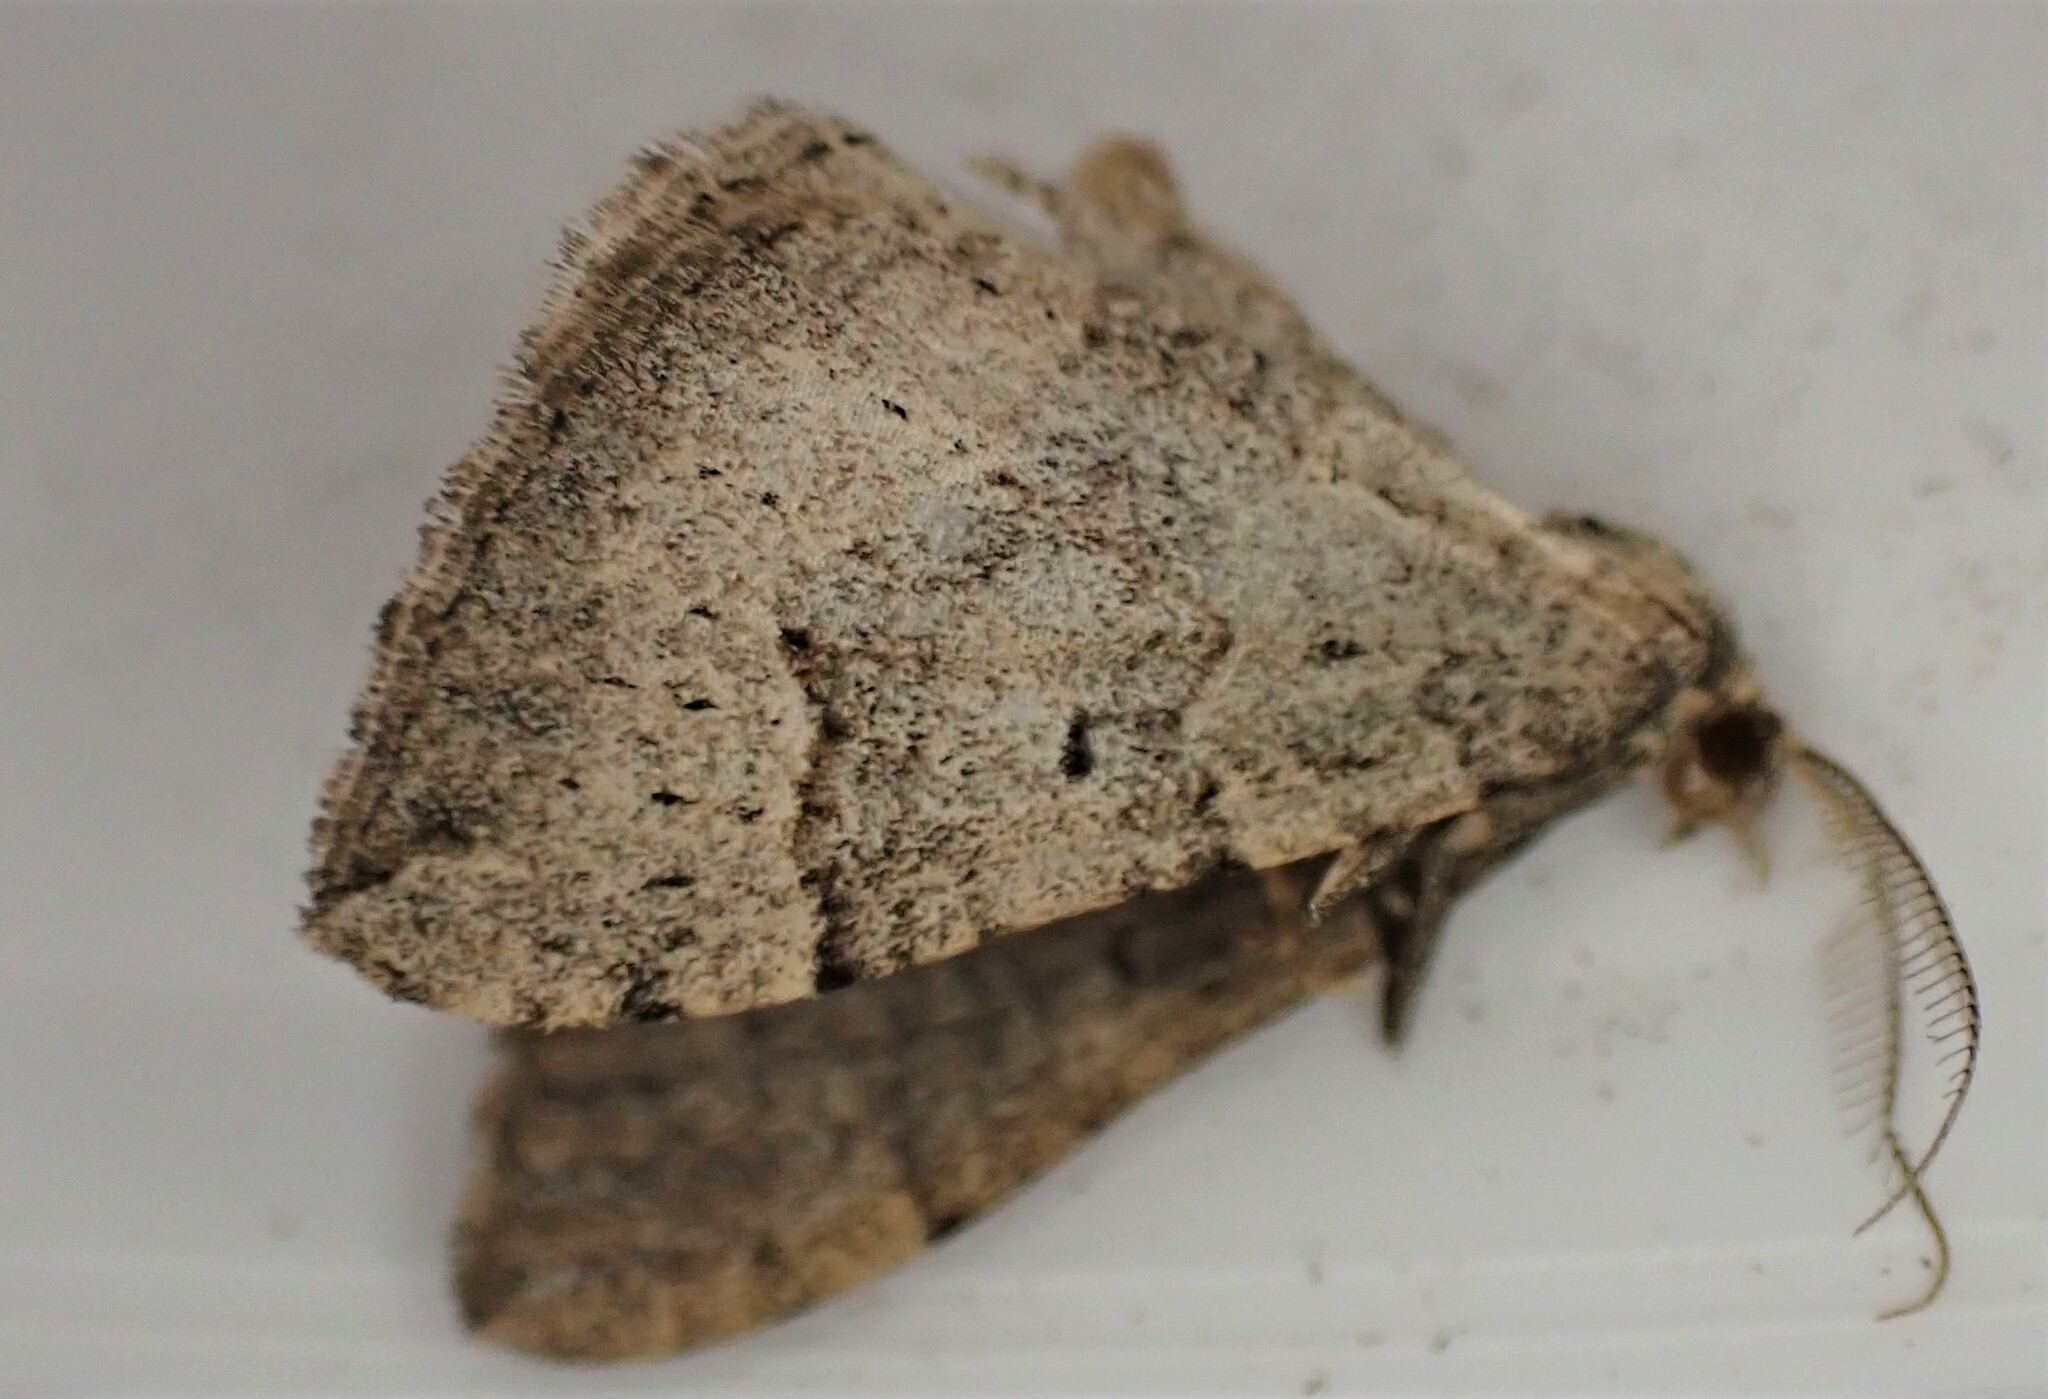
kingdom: Animalia
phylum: Arthropoda
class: Insecta
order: Lepidoptera
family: Geometridae
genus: Epyaxa
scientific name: Epyaxa rosearia
